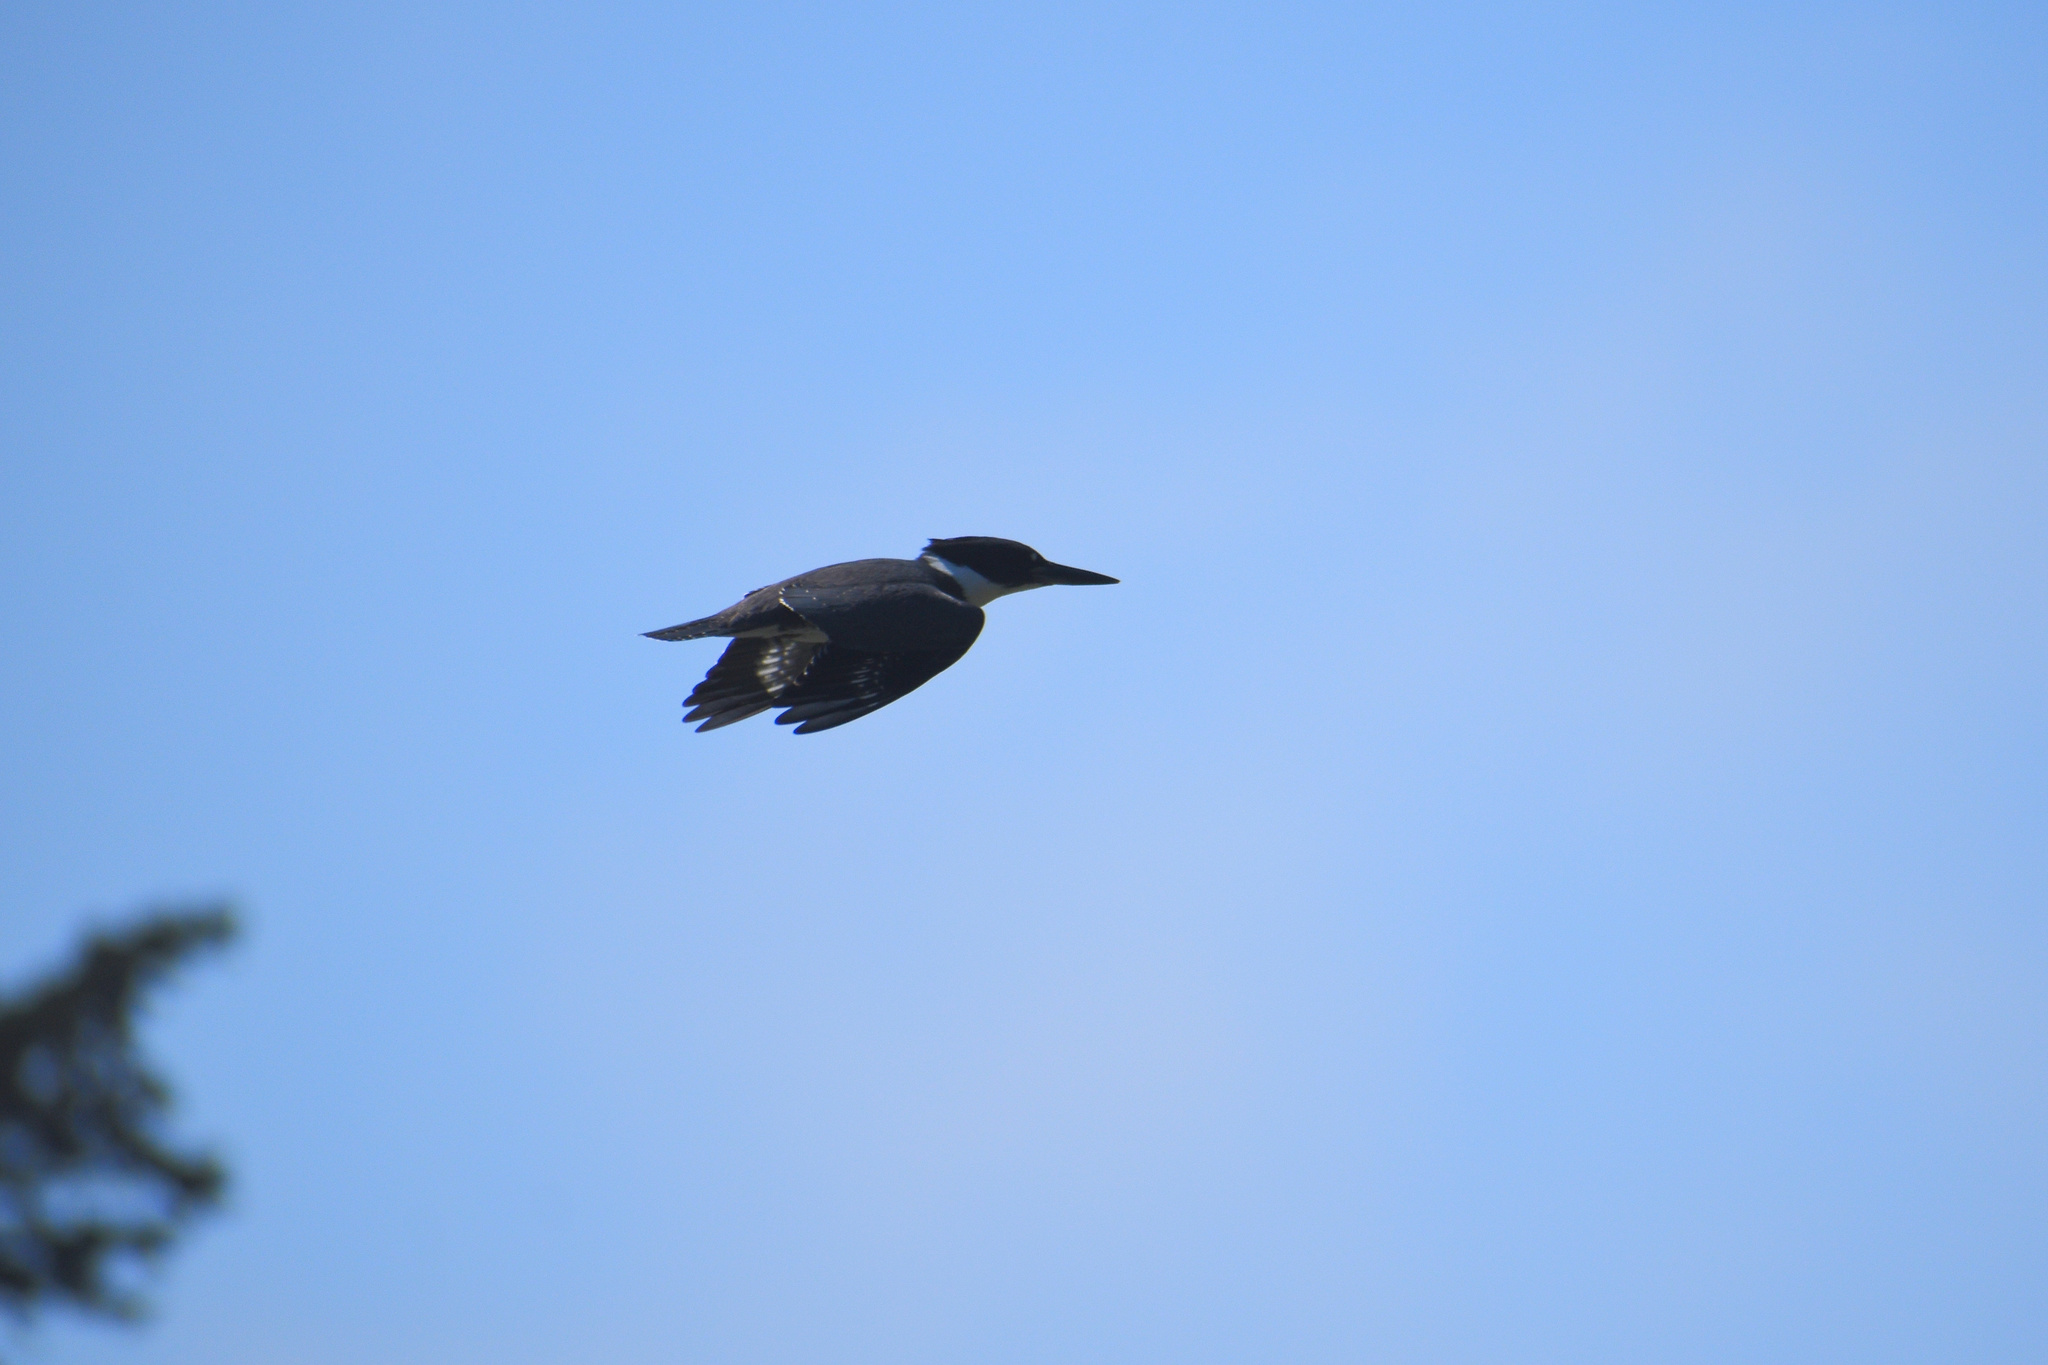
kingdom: Animalia
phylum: Chordata
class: Aves
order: Coraciiformes
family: Alcedinidae
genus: Megaceryle
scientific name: Megaceryle alcyon
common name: Belted kingfisher
